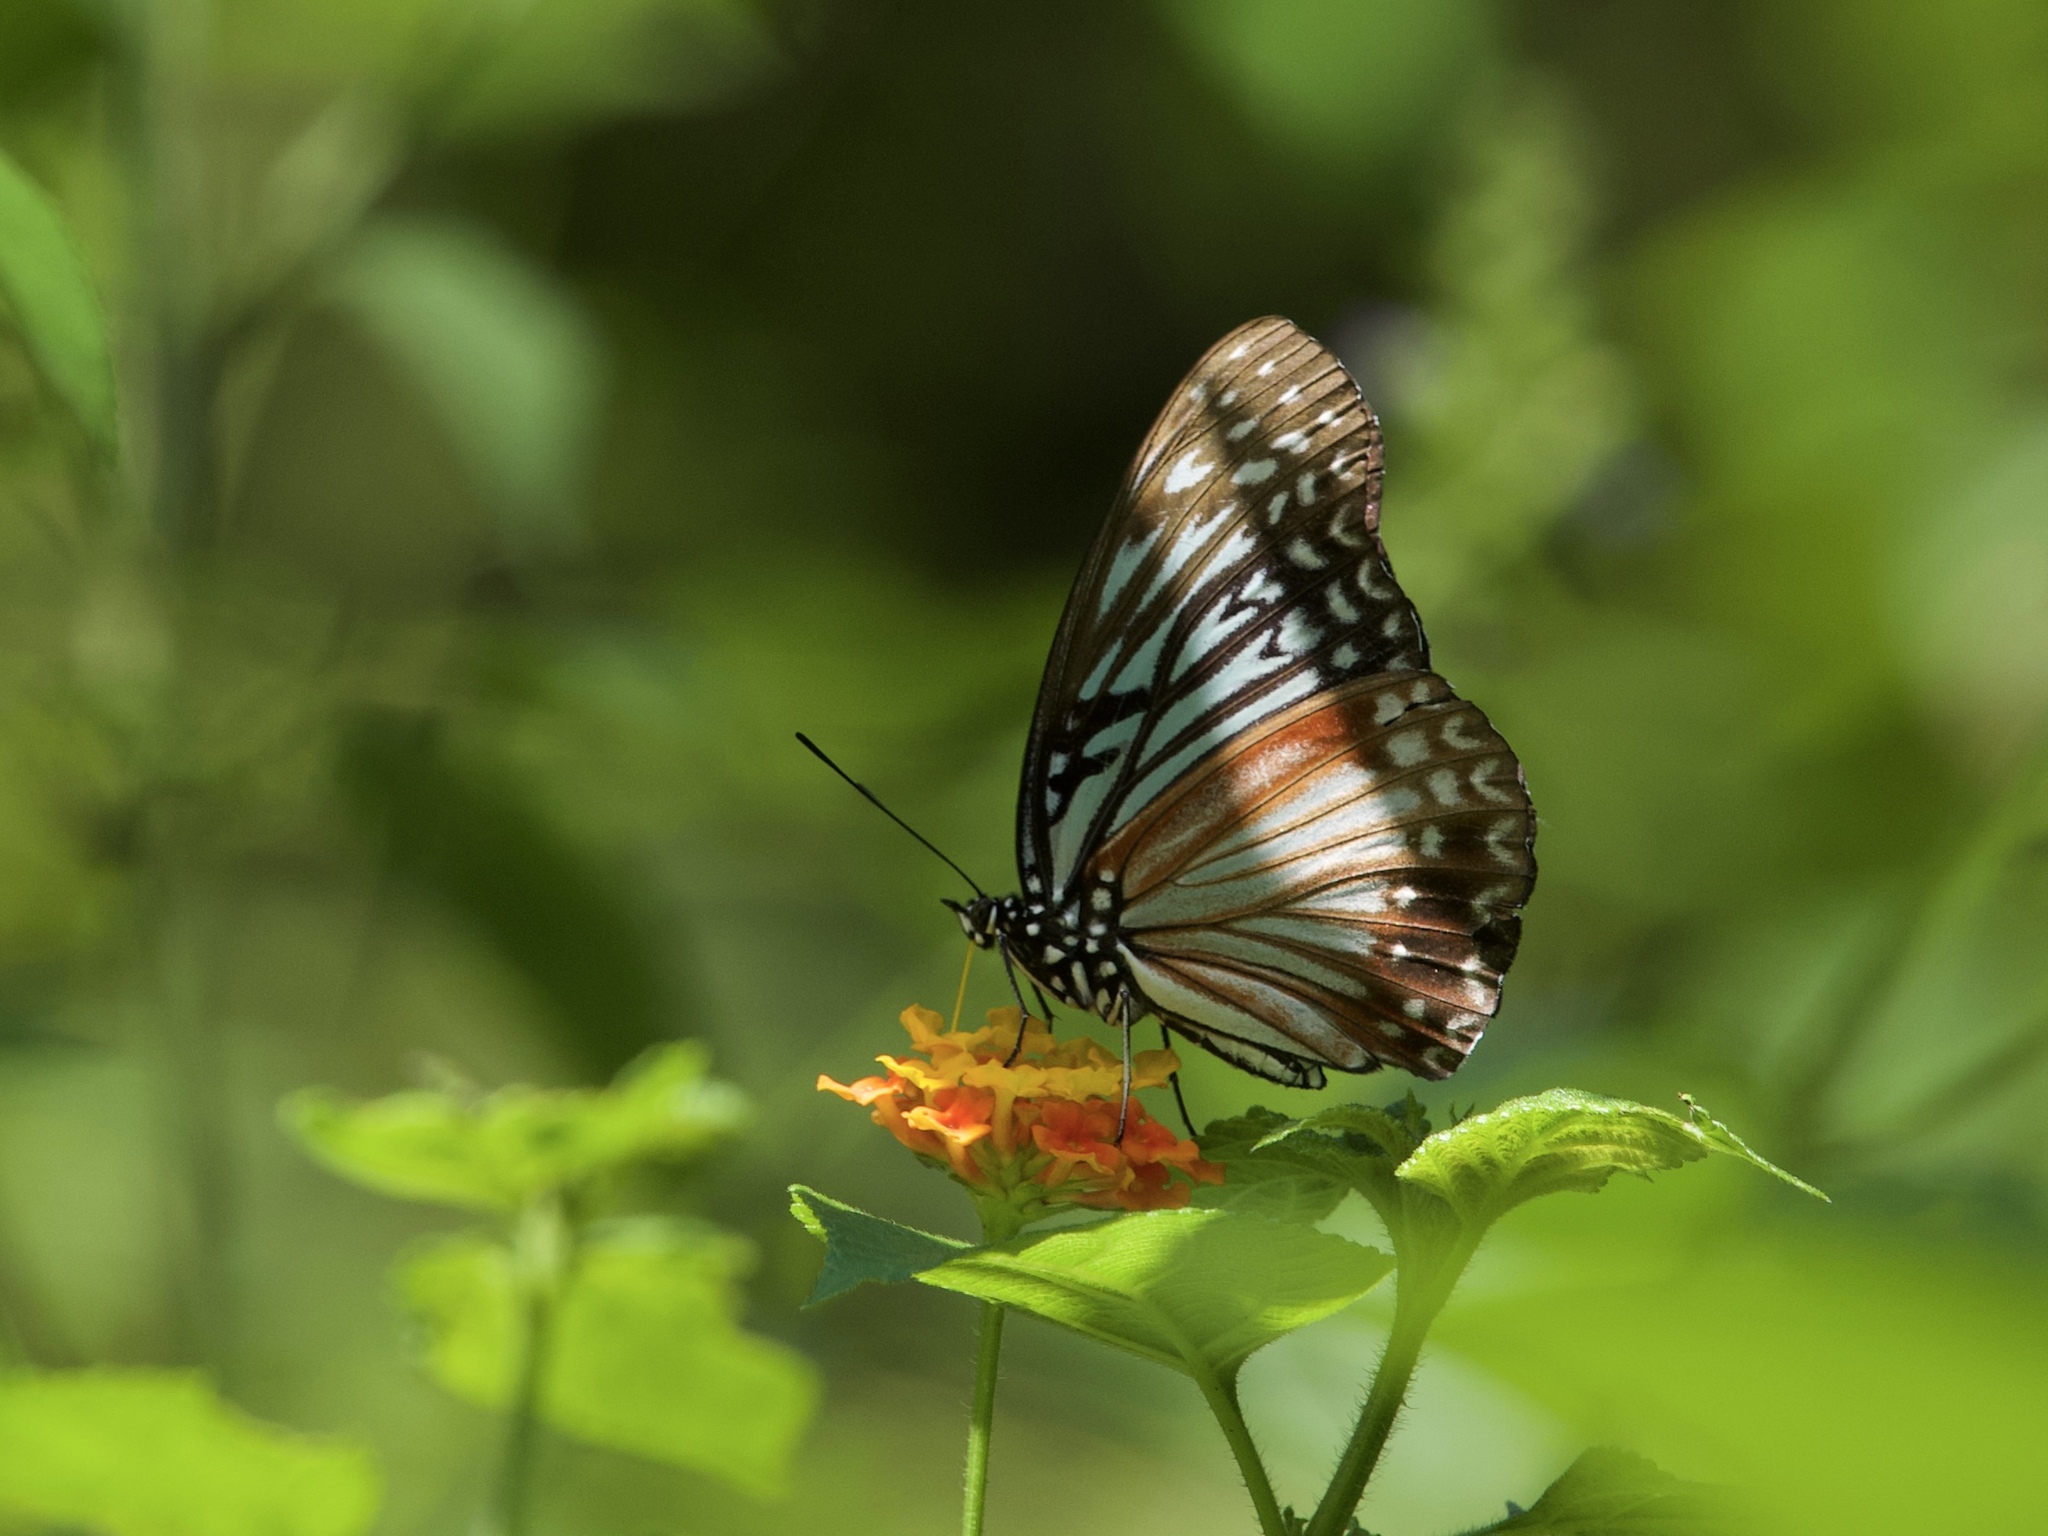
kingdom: Animalia
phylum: Arthropoda
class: Insecta
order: Lepidoptera
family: Nymphalidae
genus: Hestinalis
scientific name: Hestinalis nama
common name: Circe
